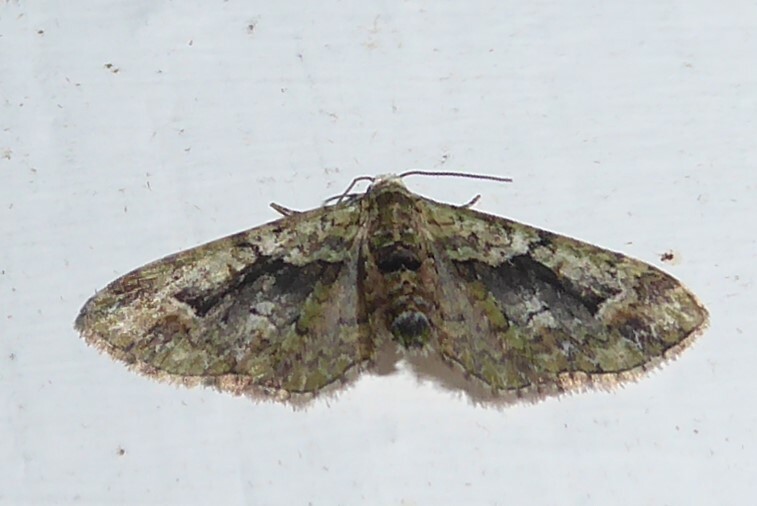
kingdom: Animalia
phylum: Arthropoda
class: Insecta
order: Lepidoptera
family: Geometridae
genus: Pasiphila
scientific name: Pasiphila suffusa
